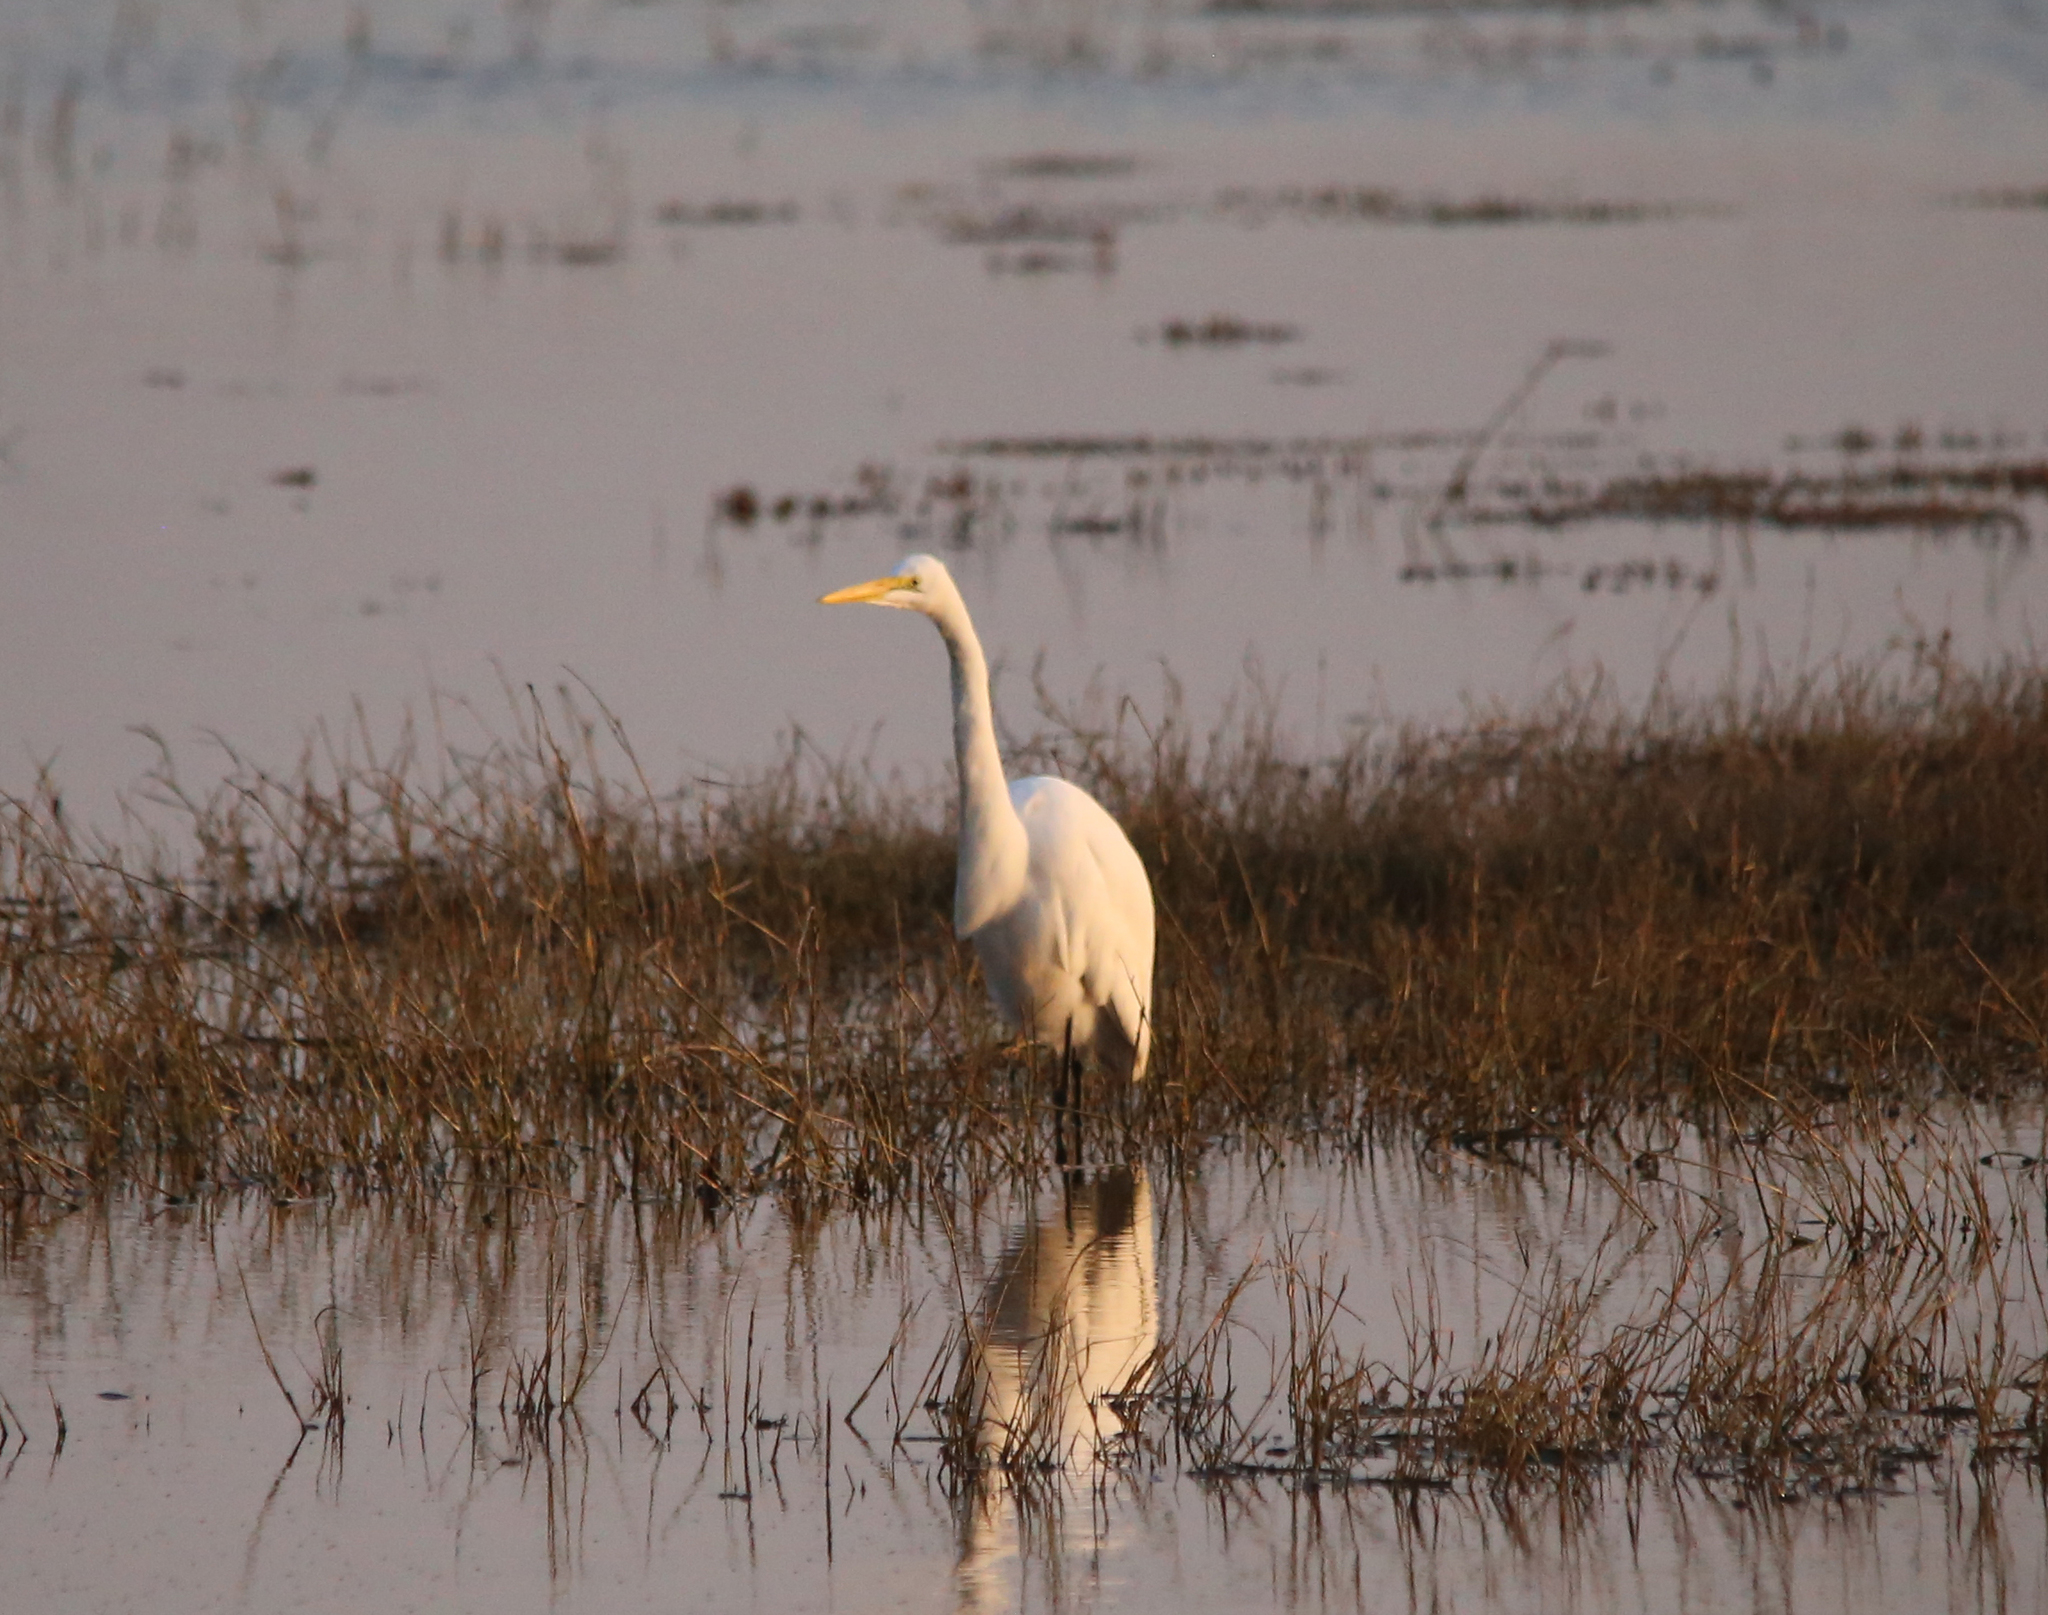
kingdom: Animalia
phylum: Chordata
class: Aves
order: Pelecaniformes
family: Ardeidae
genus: Ardea
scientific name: Ardea alba
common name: Great egret
